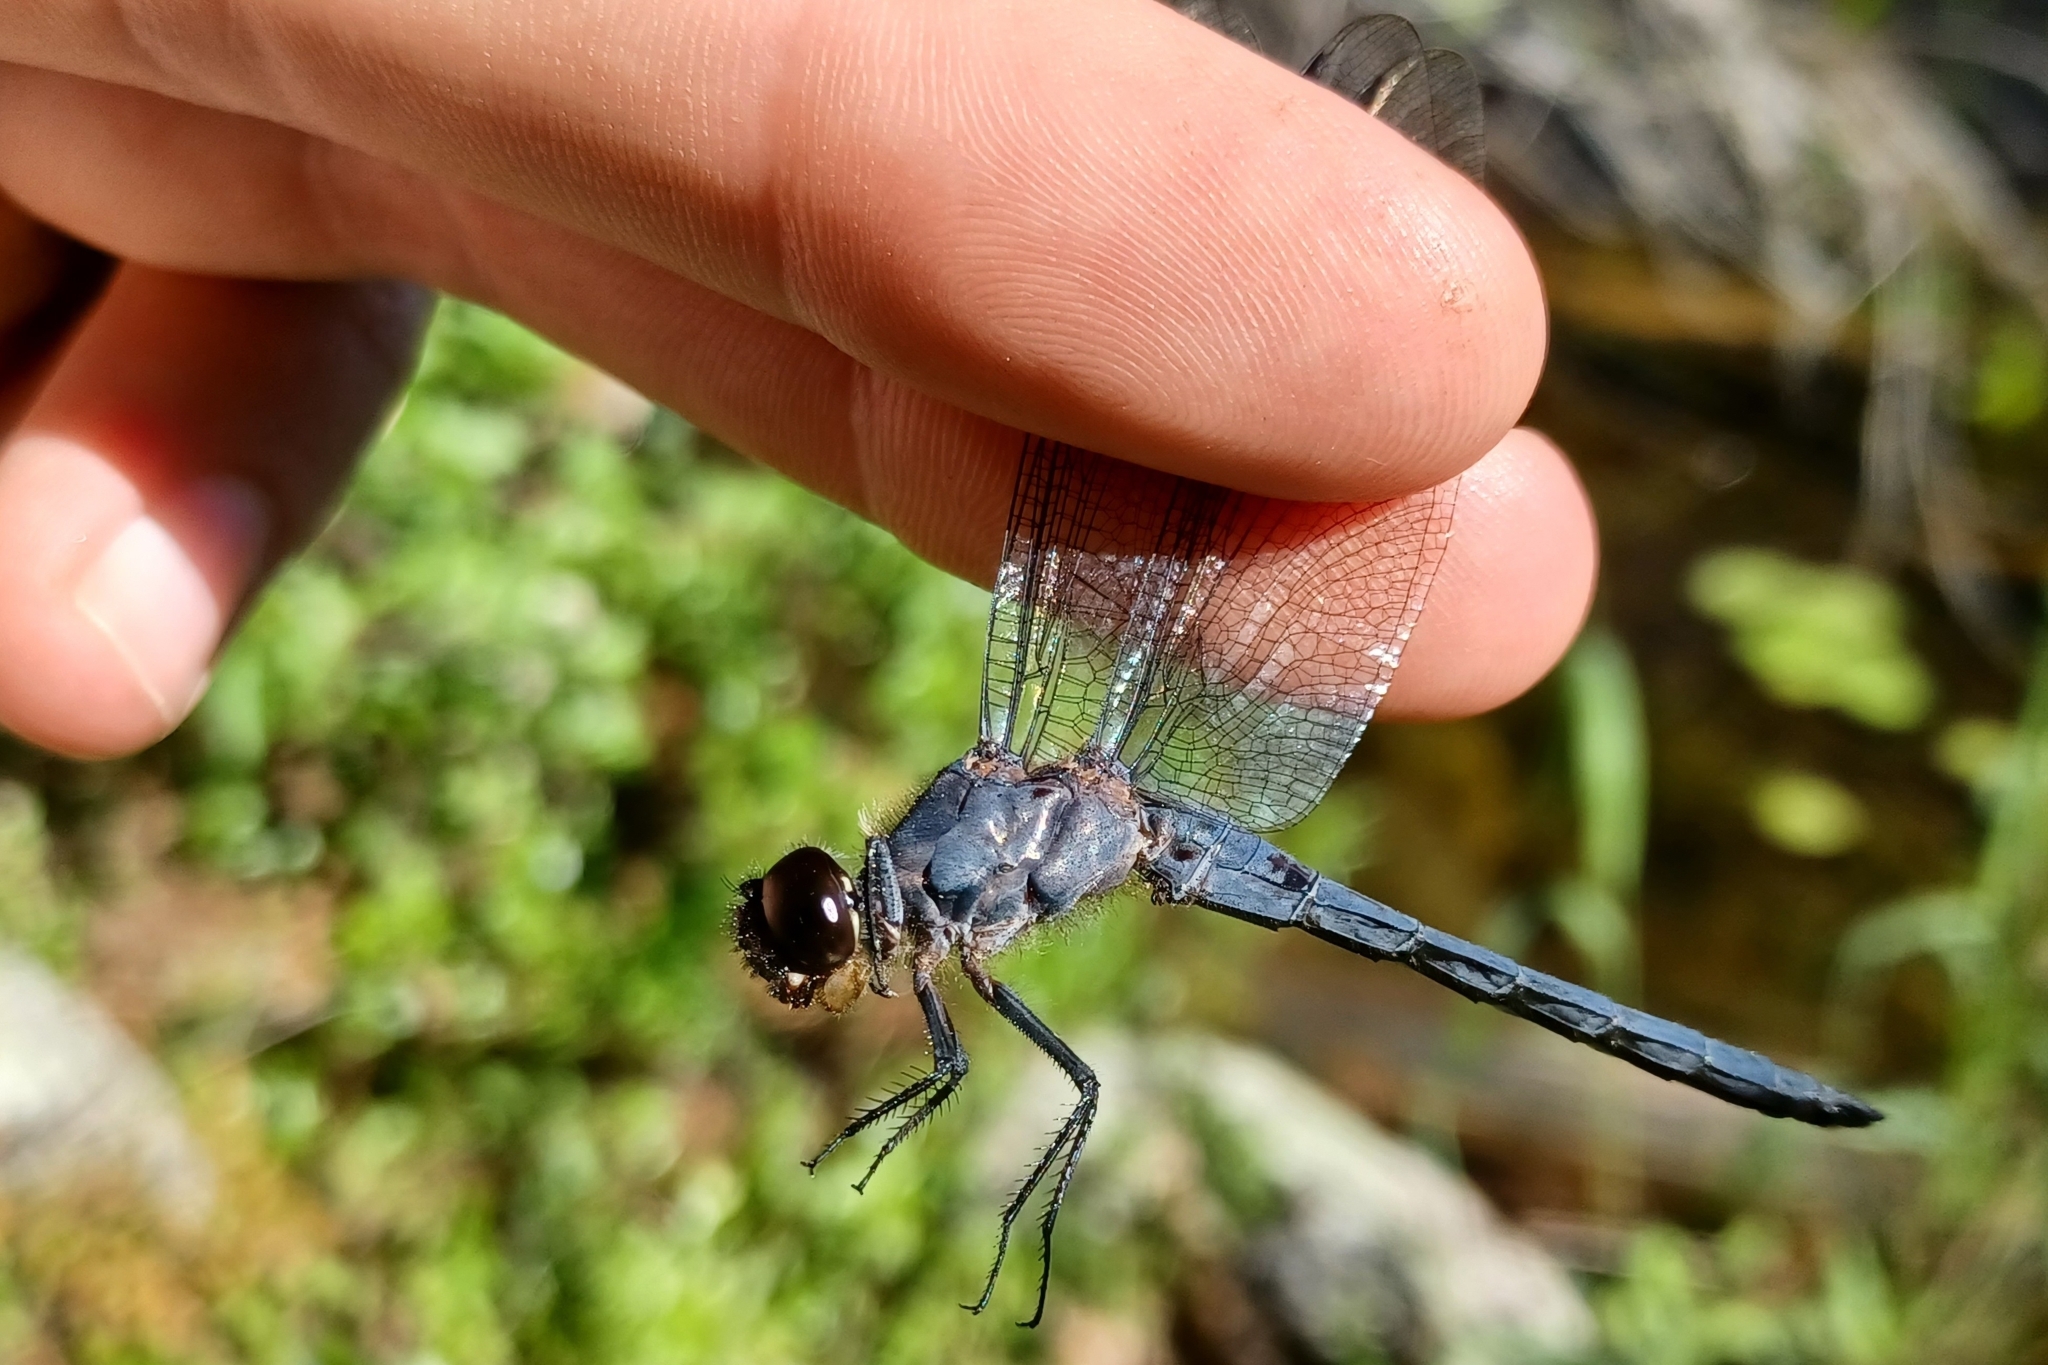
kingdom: Animalia
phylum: Arthropoda
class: Insecta
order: Odonata
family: Libellulidae
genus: Libellula
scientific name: Libellula incesta
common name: Slaty skimmer
